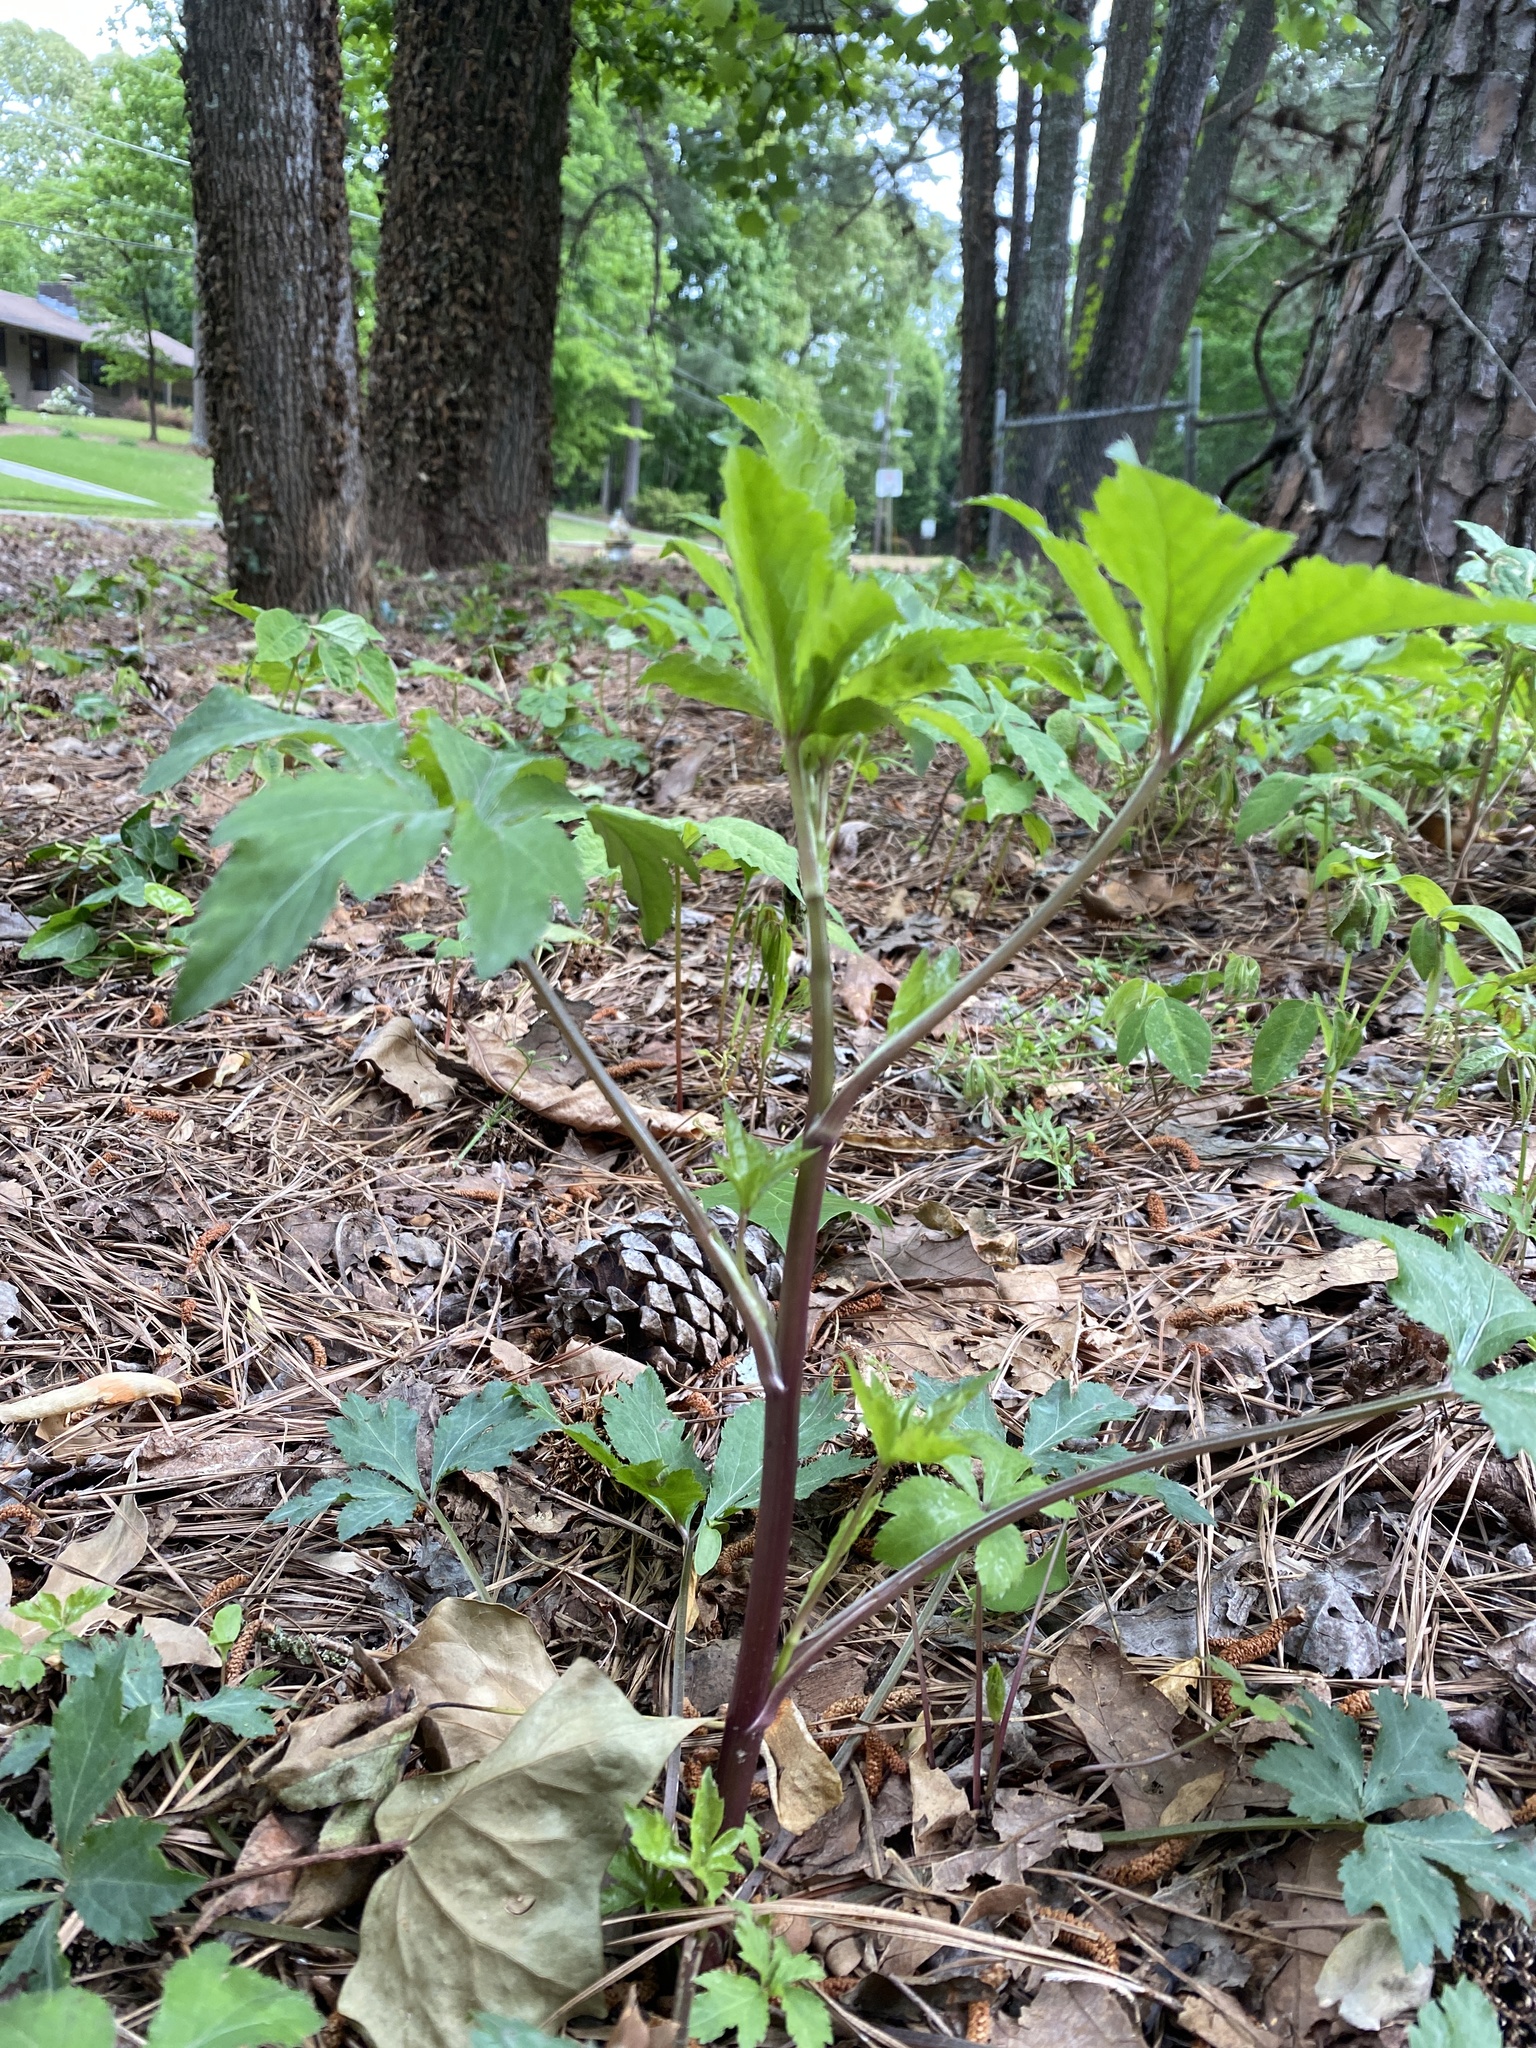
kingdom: Plantae
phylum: Tracheophyta
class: Magnoliopsida
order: Apiales
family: Apiaceae
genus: Sanicula
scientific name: Sanicula canadensis
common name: Canada sanicle
